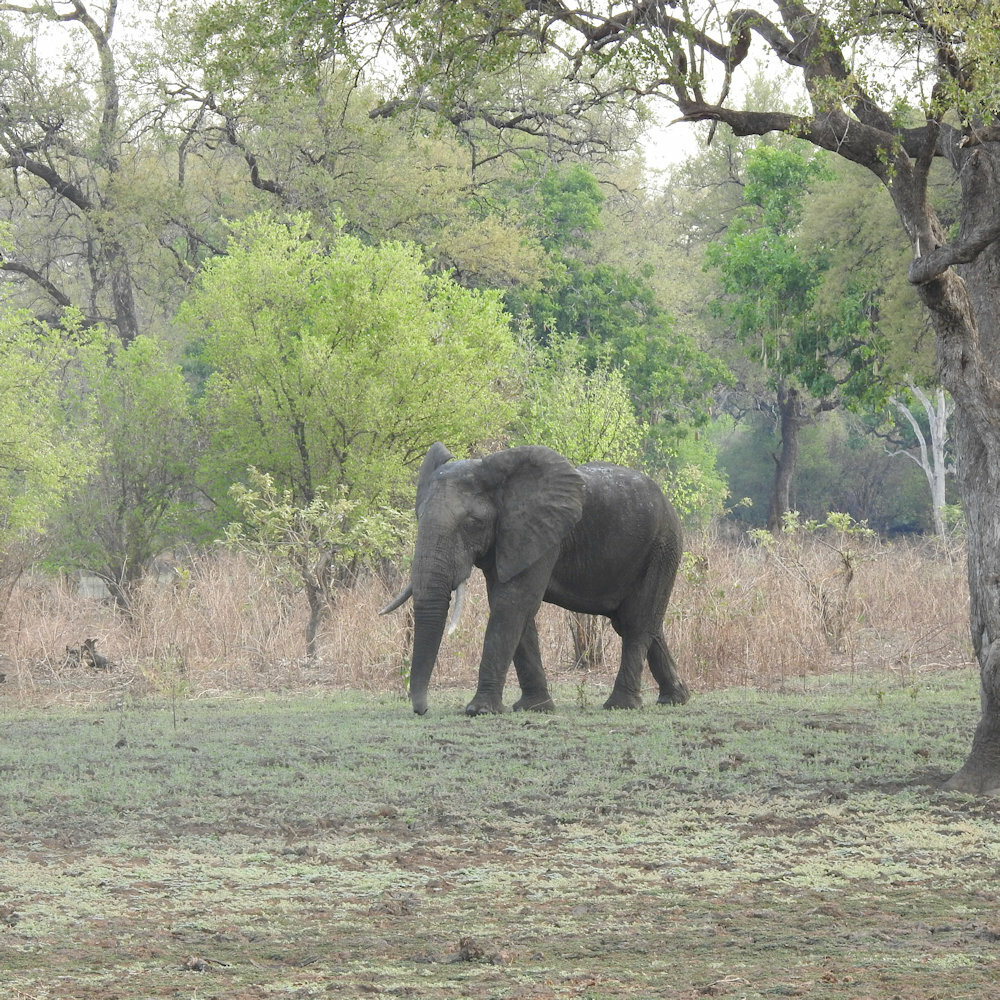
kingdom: Animalia
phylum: Chordata
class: Mammalia
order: Proboscidea
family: Elephantidae
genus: Loxodonta
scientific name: Loxodonta africana
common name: African elephant
